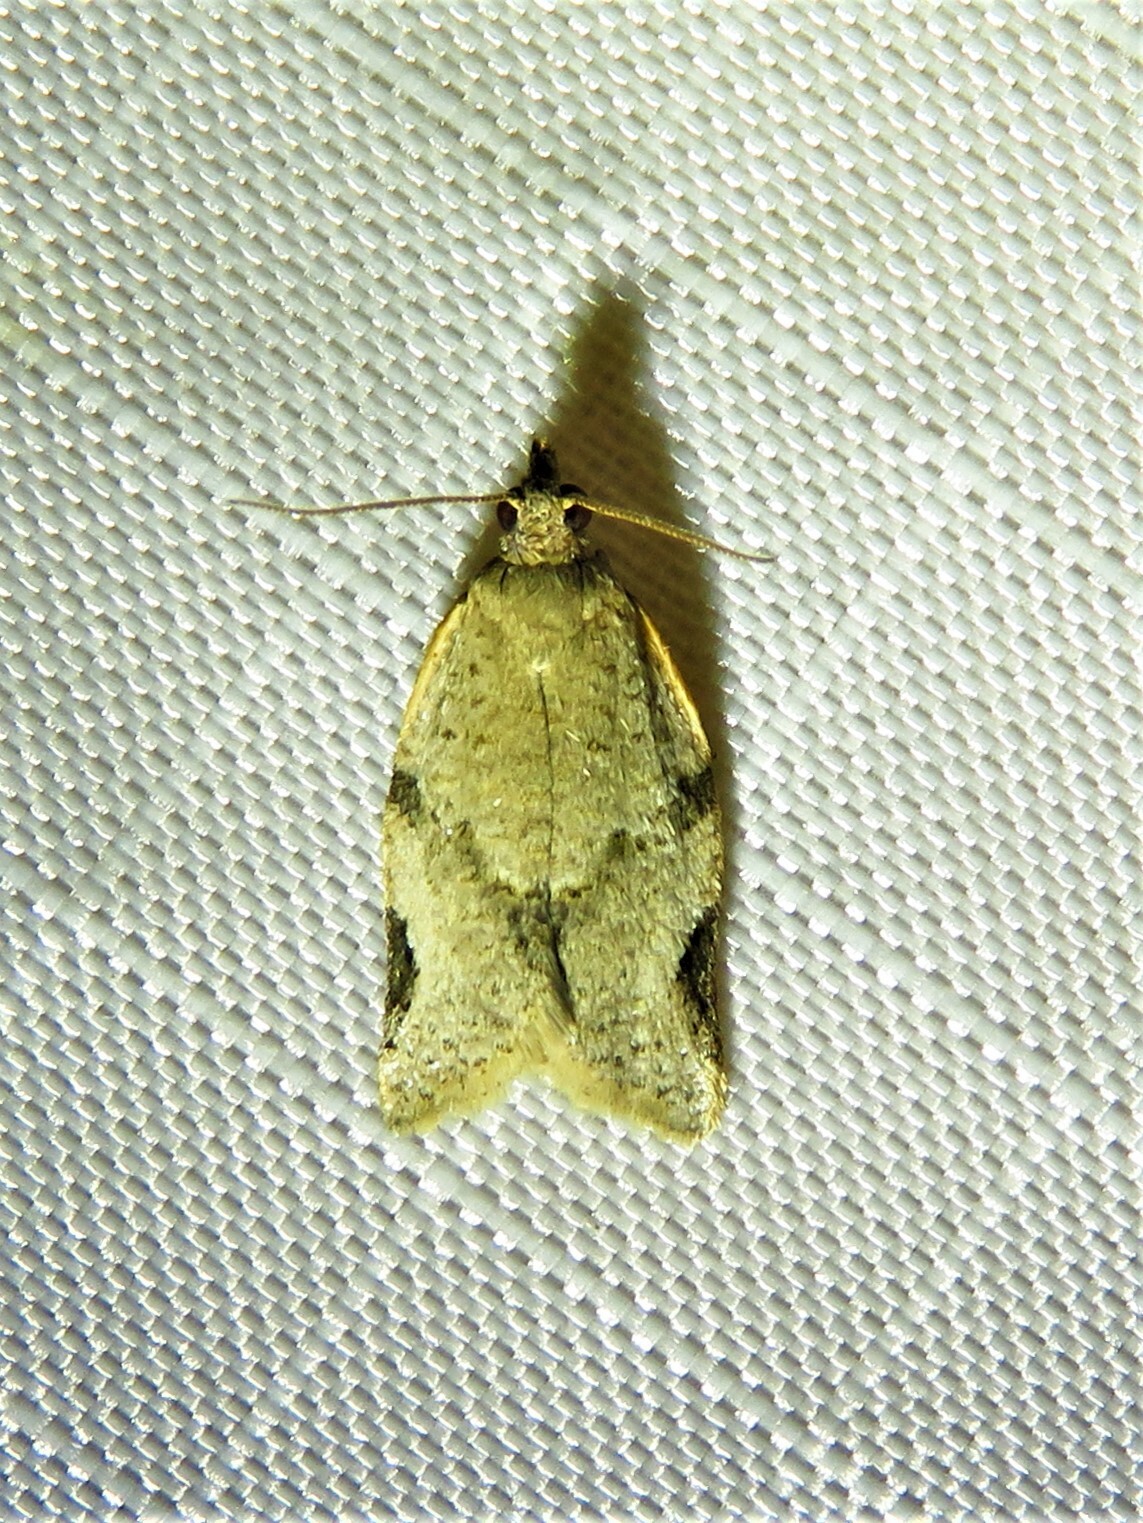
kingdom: Animalia
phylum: Arthropoda
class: Insecta
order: Lepidoptera
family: Tortricidae
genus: Clepsis
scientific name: Clepsis virescana
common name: Greenish apple moth
